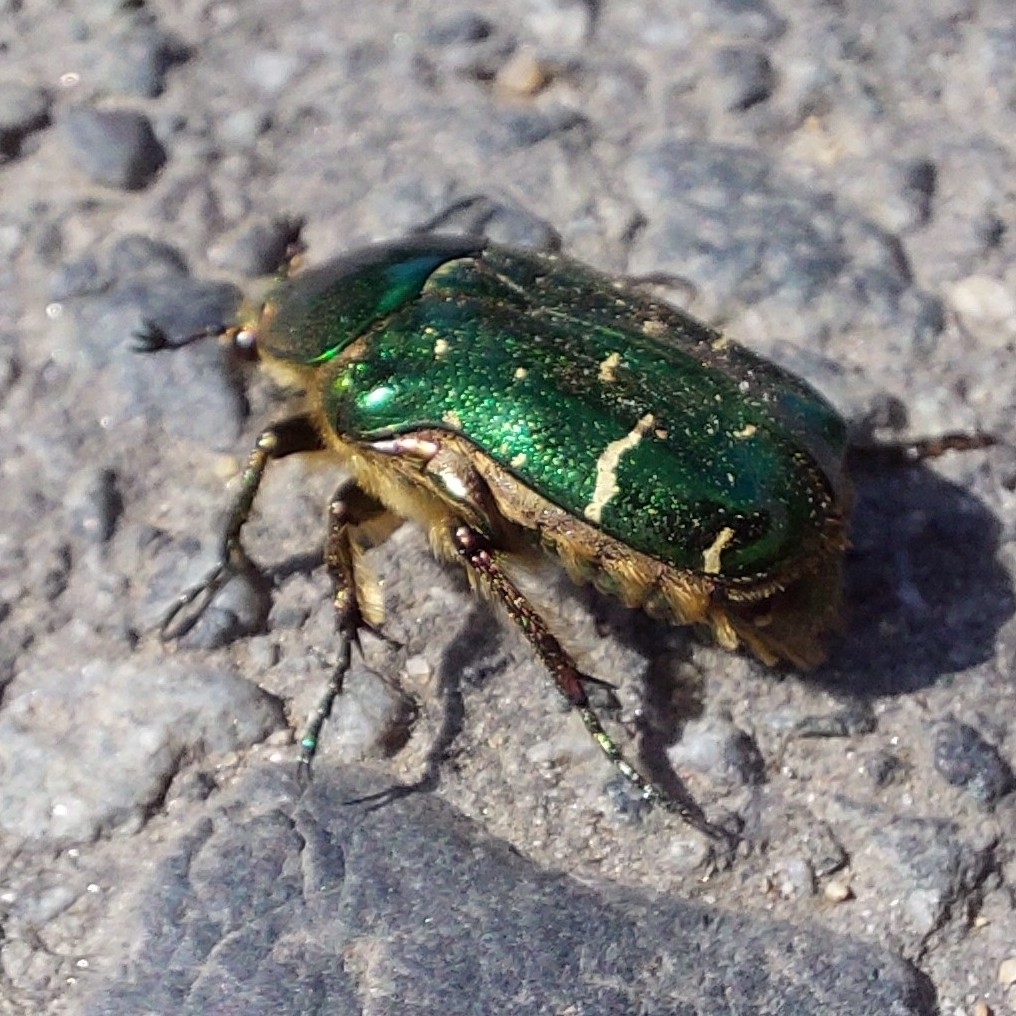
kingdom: Animalia
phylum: Arthropoda
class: Insecta
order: Coleoptera
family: Scarabaeidae
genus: Cetonia
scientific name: Cetonia aurata
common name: Rose chafer
